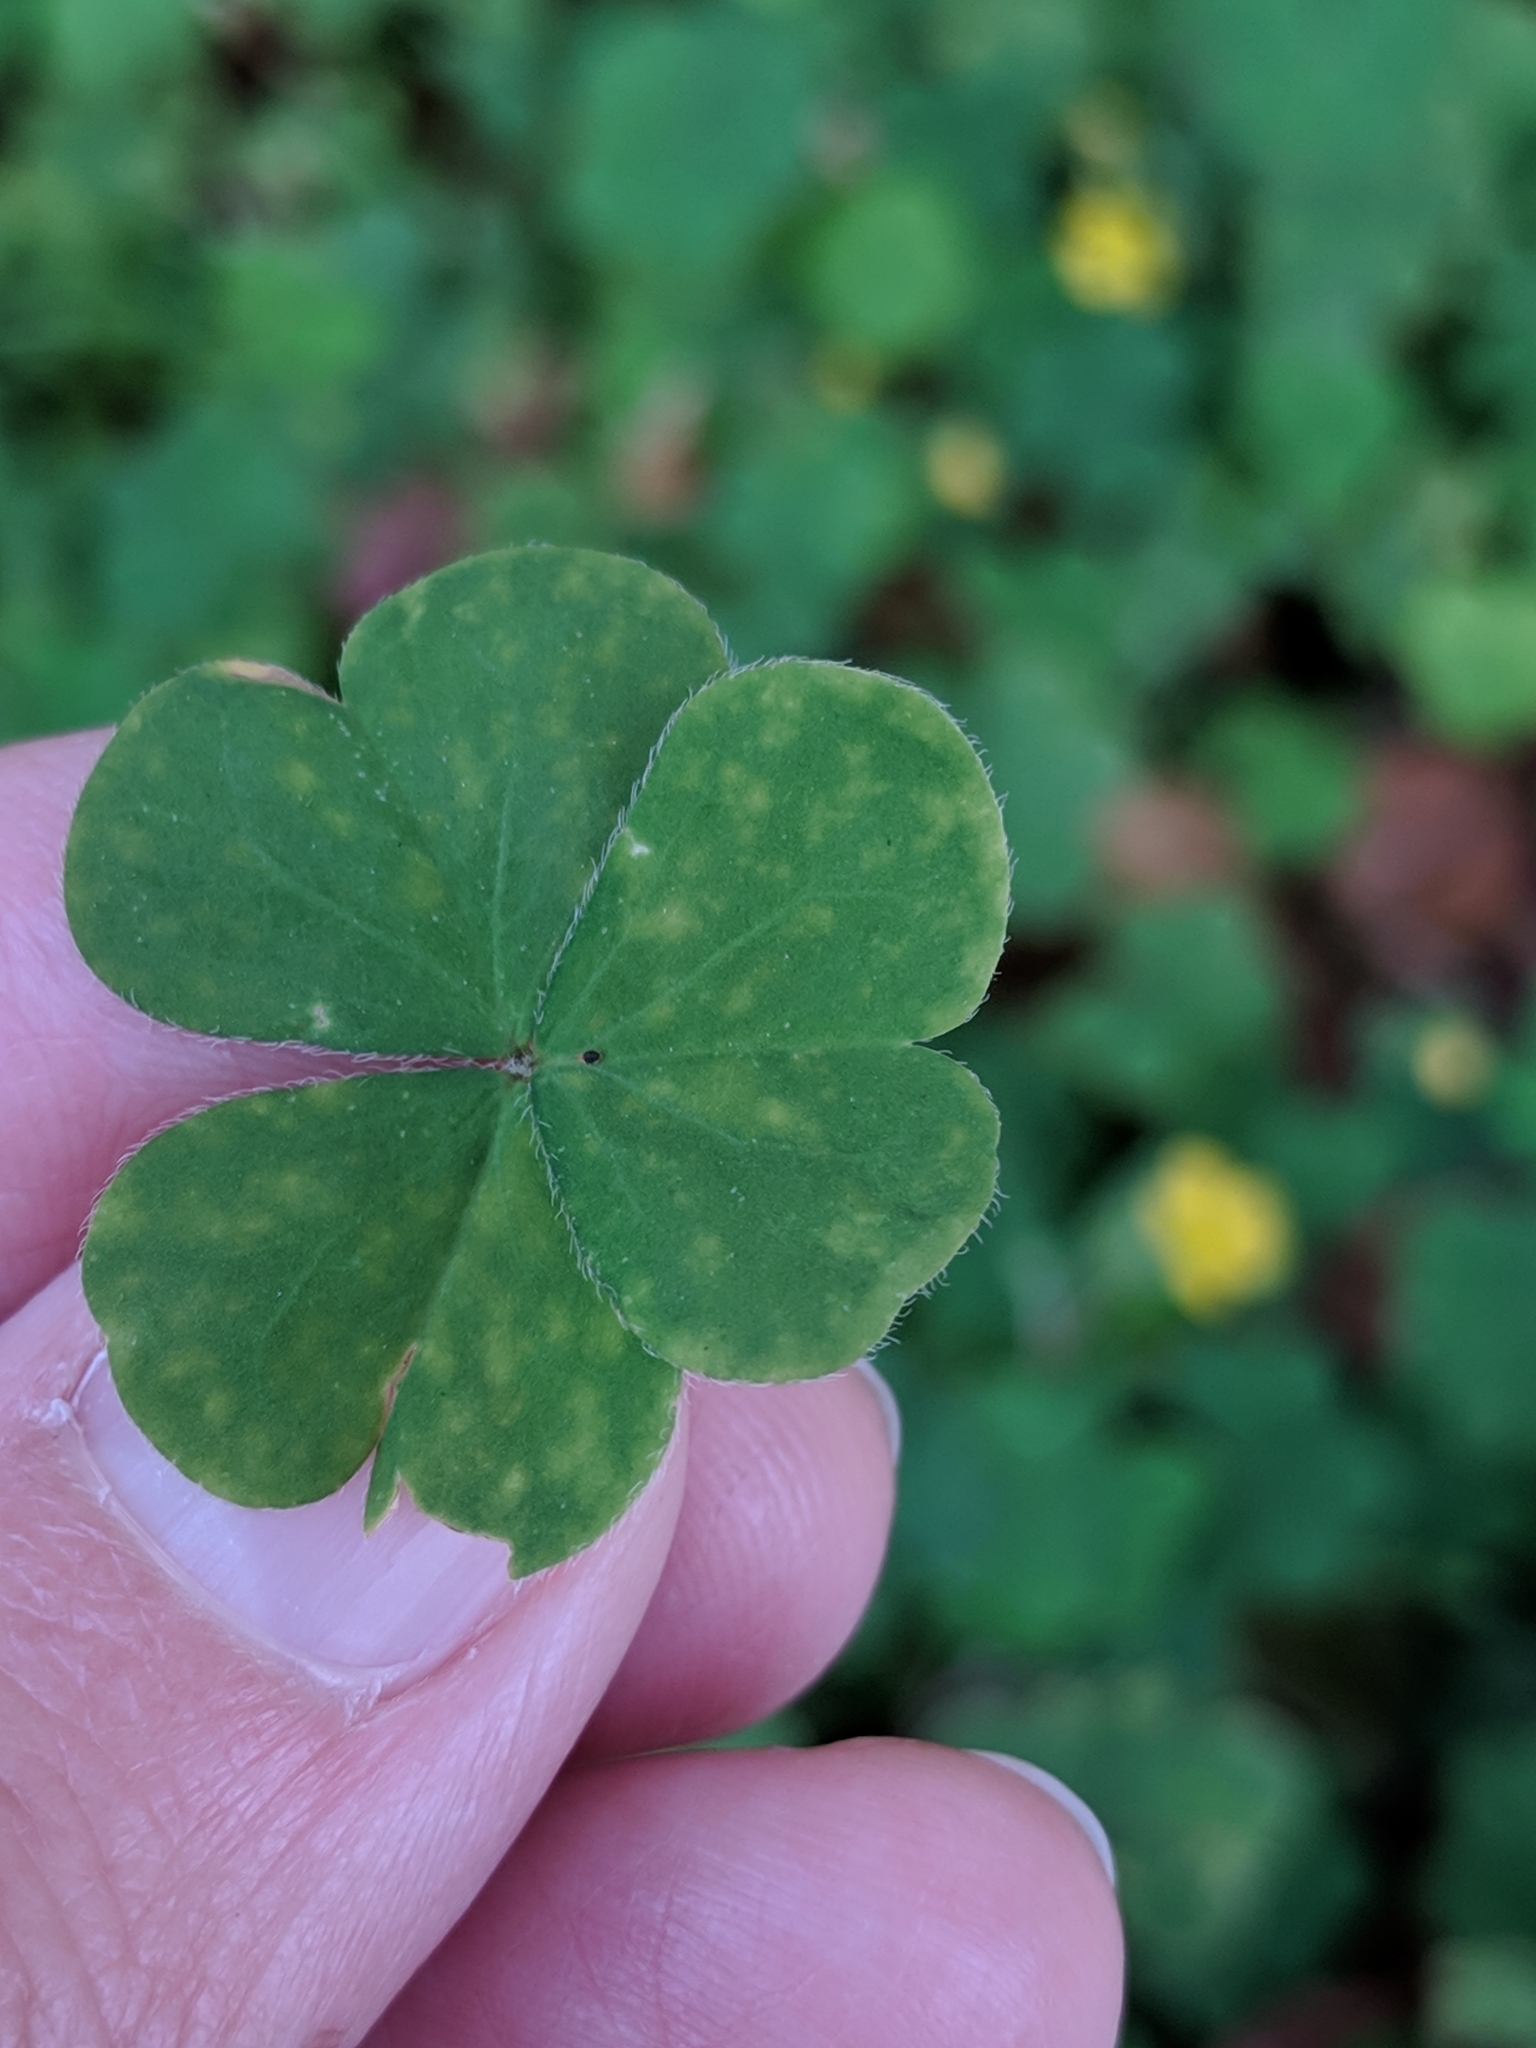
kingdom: Plantae
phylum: Tracheophyta
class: Magnoliopsida
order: Oxalidales
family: Oxalidaceae
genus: Oxalis
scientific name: Oxalis corniculata
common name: Procumbent yellow-sorrel
